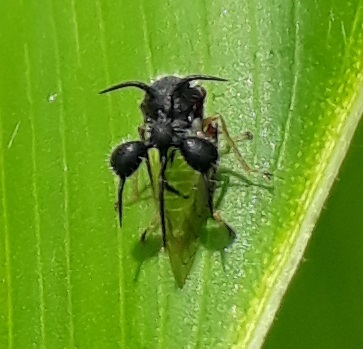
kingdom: Animalia
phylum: Arthropoda
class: Insecta
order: Hemiptera
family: Membracidae
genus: Cyphonia
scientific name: Cyphonia clavata
